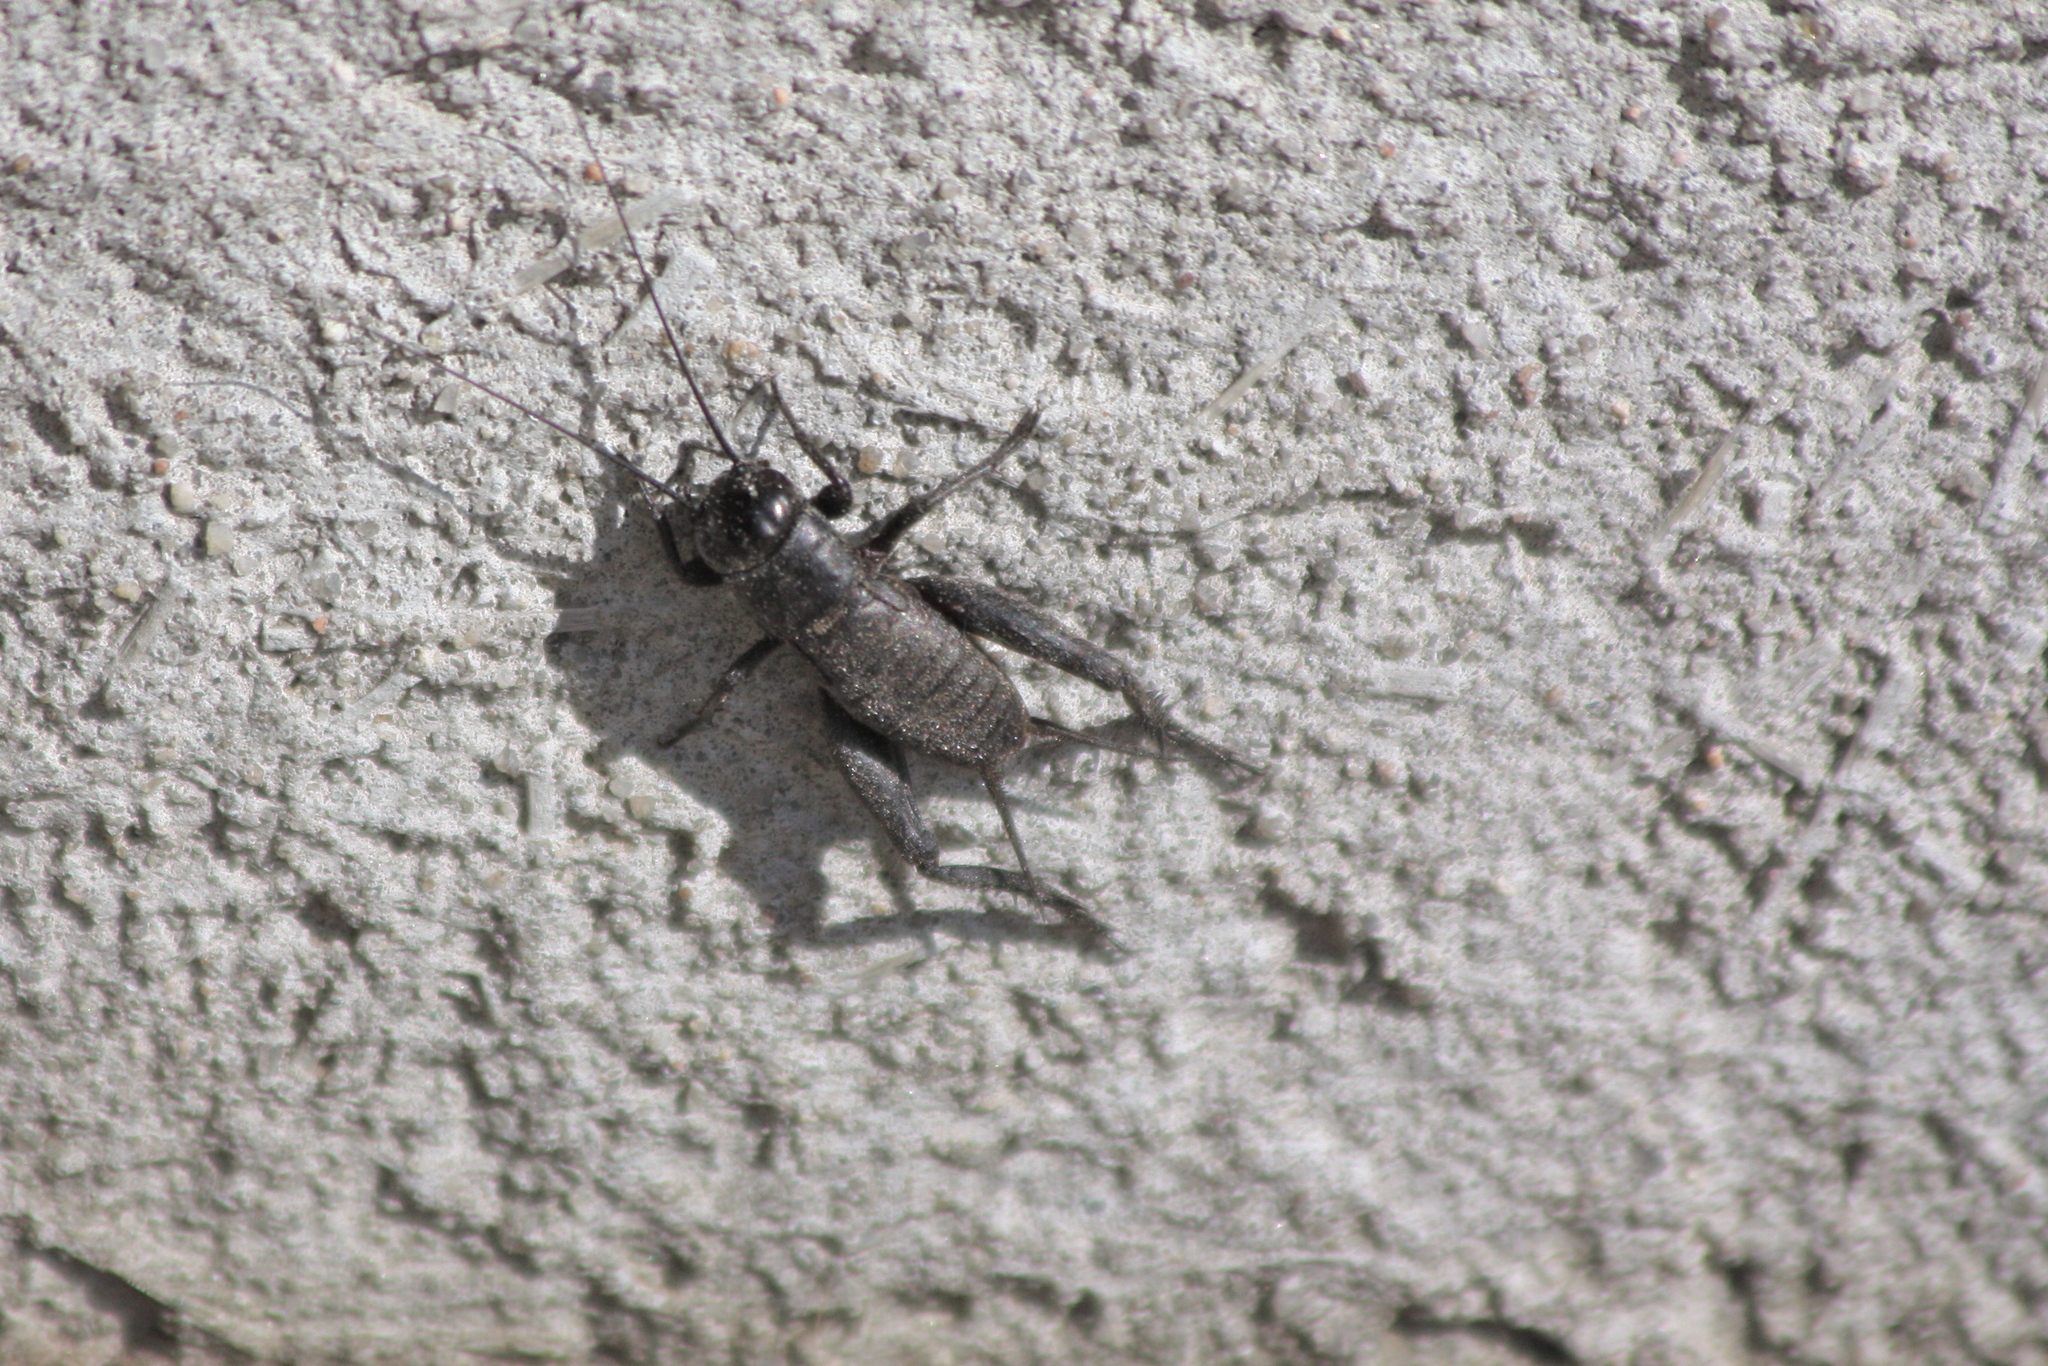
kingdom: Animalia
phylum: Arthropoda
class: Insecta
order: Orthoptera
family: Gryllidae
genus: Gryllus
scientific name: Gryllus veletis
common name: Spring field cricket
